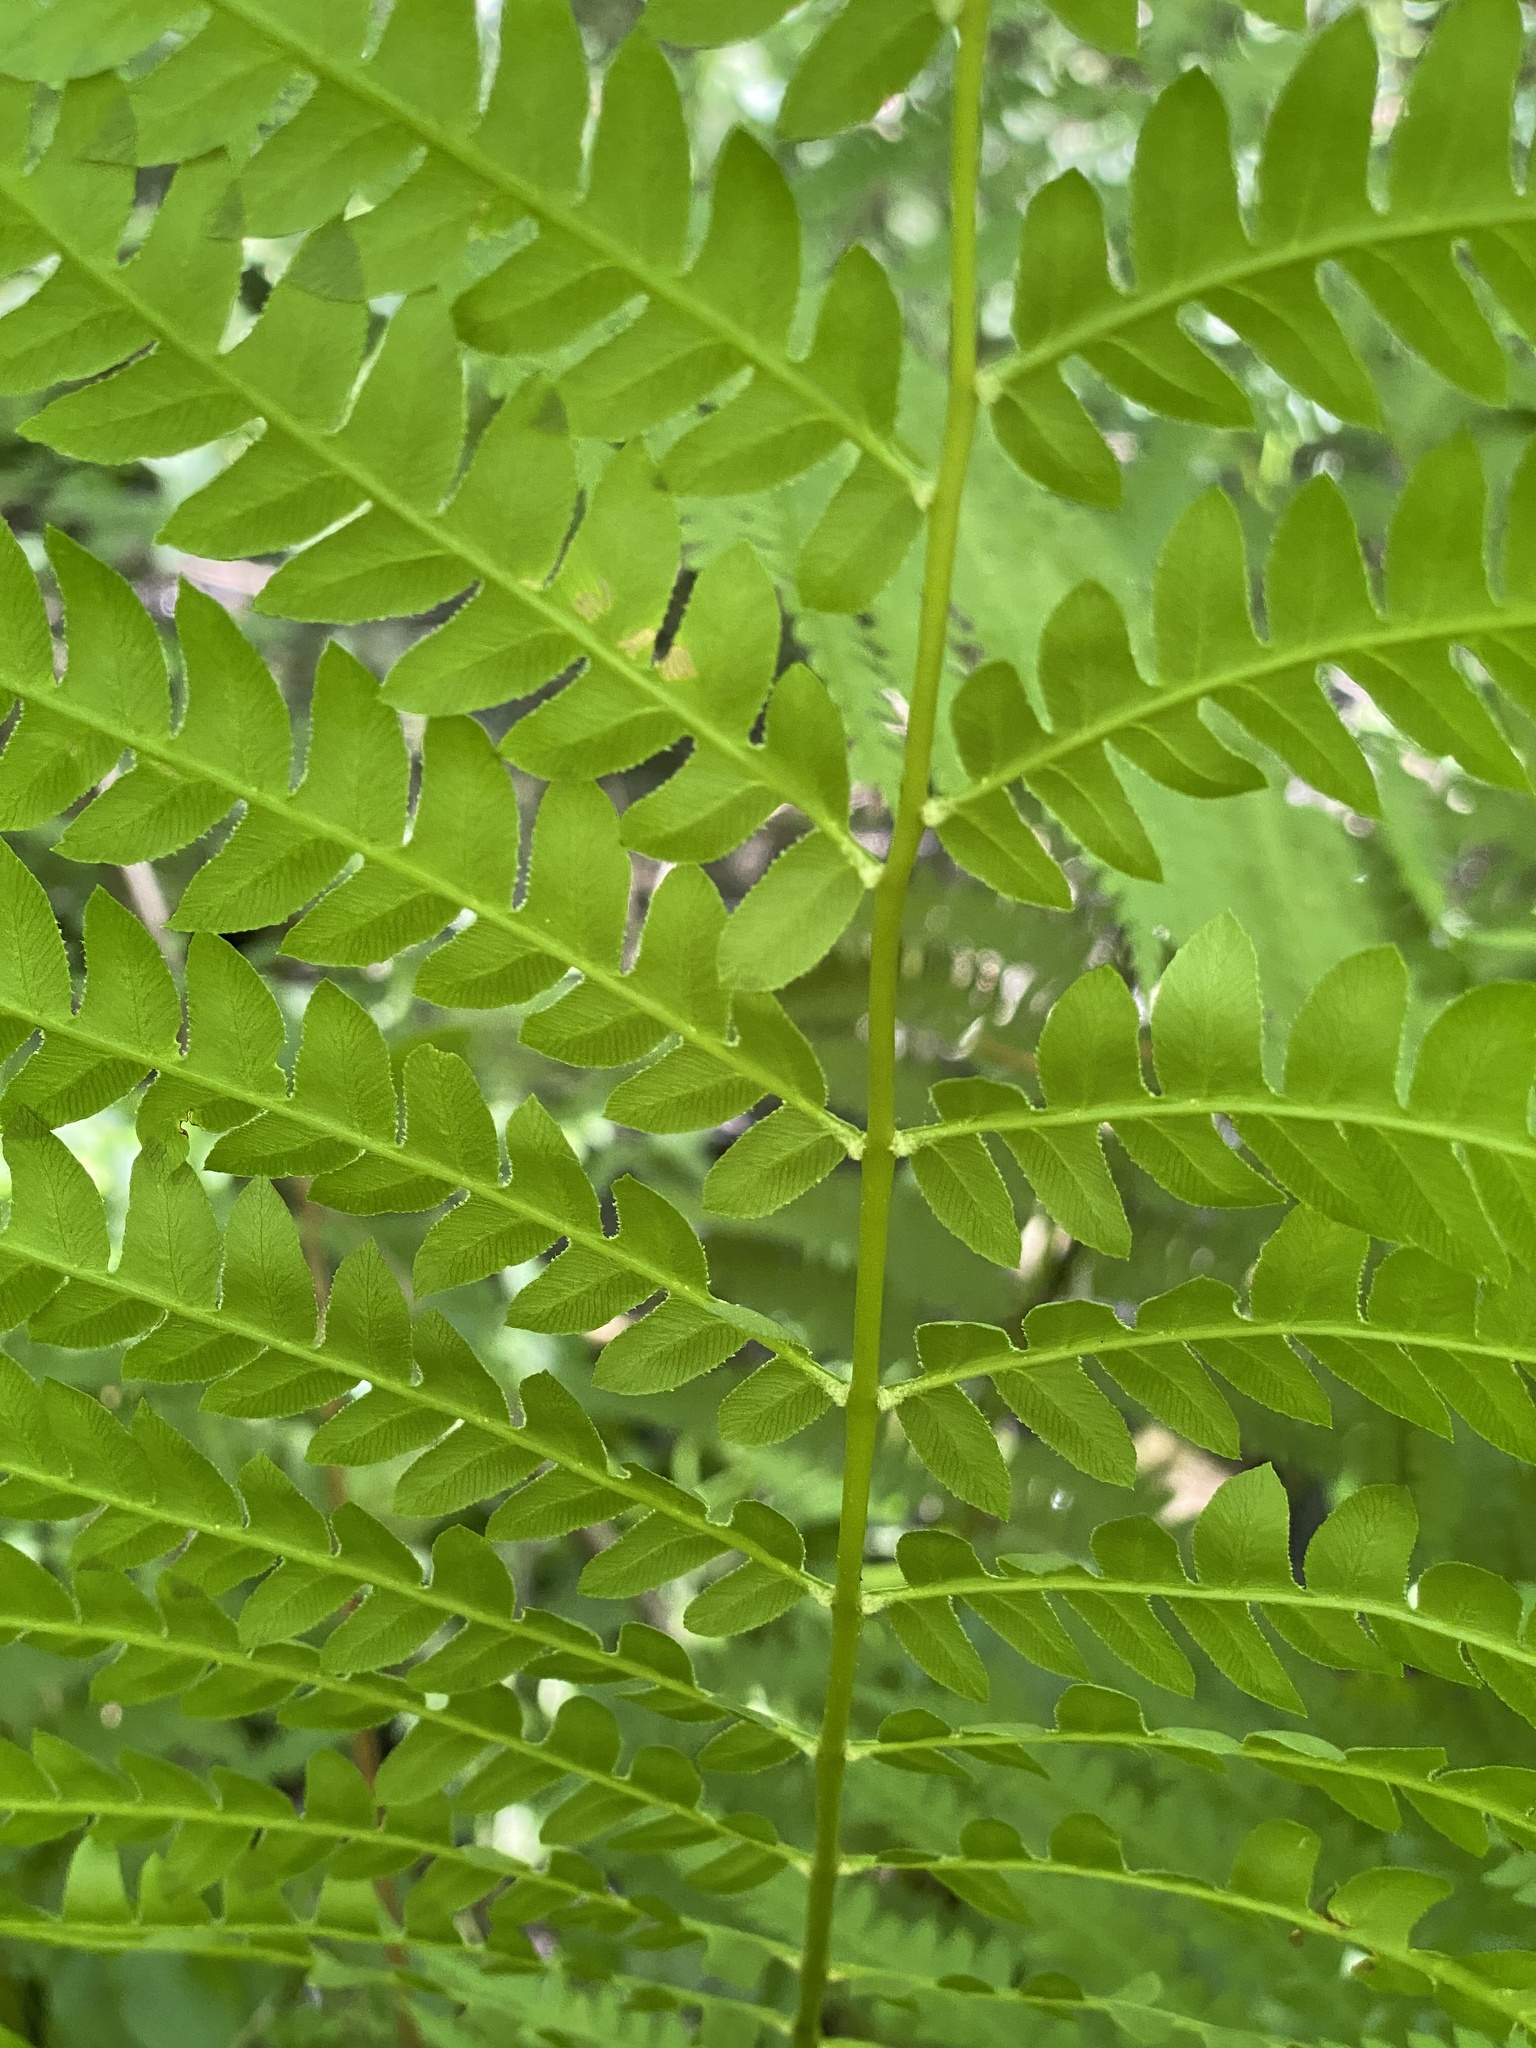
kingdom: Plantae
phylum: Tracheophyta
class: Polypodiopsida
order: Osmundales
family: Osmundaceae
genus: Osmundastrum
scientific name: Osmundastrum cinnamomeum
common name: Cinnamon fern
